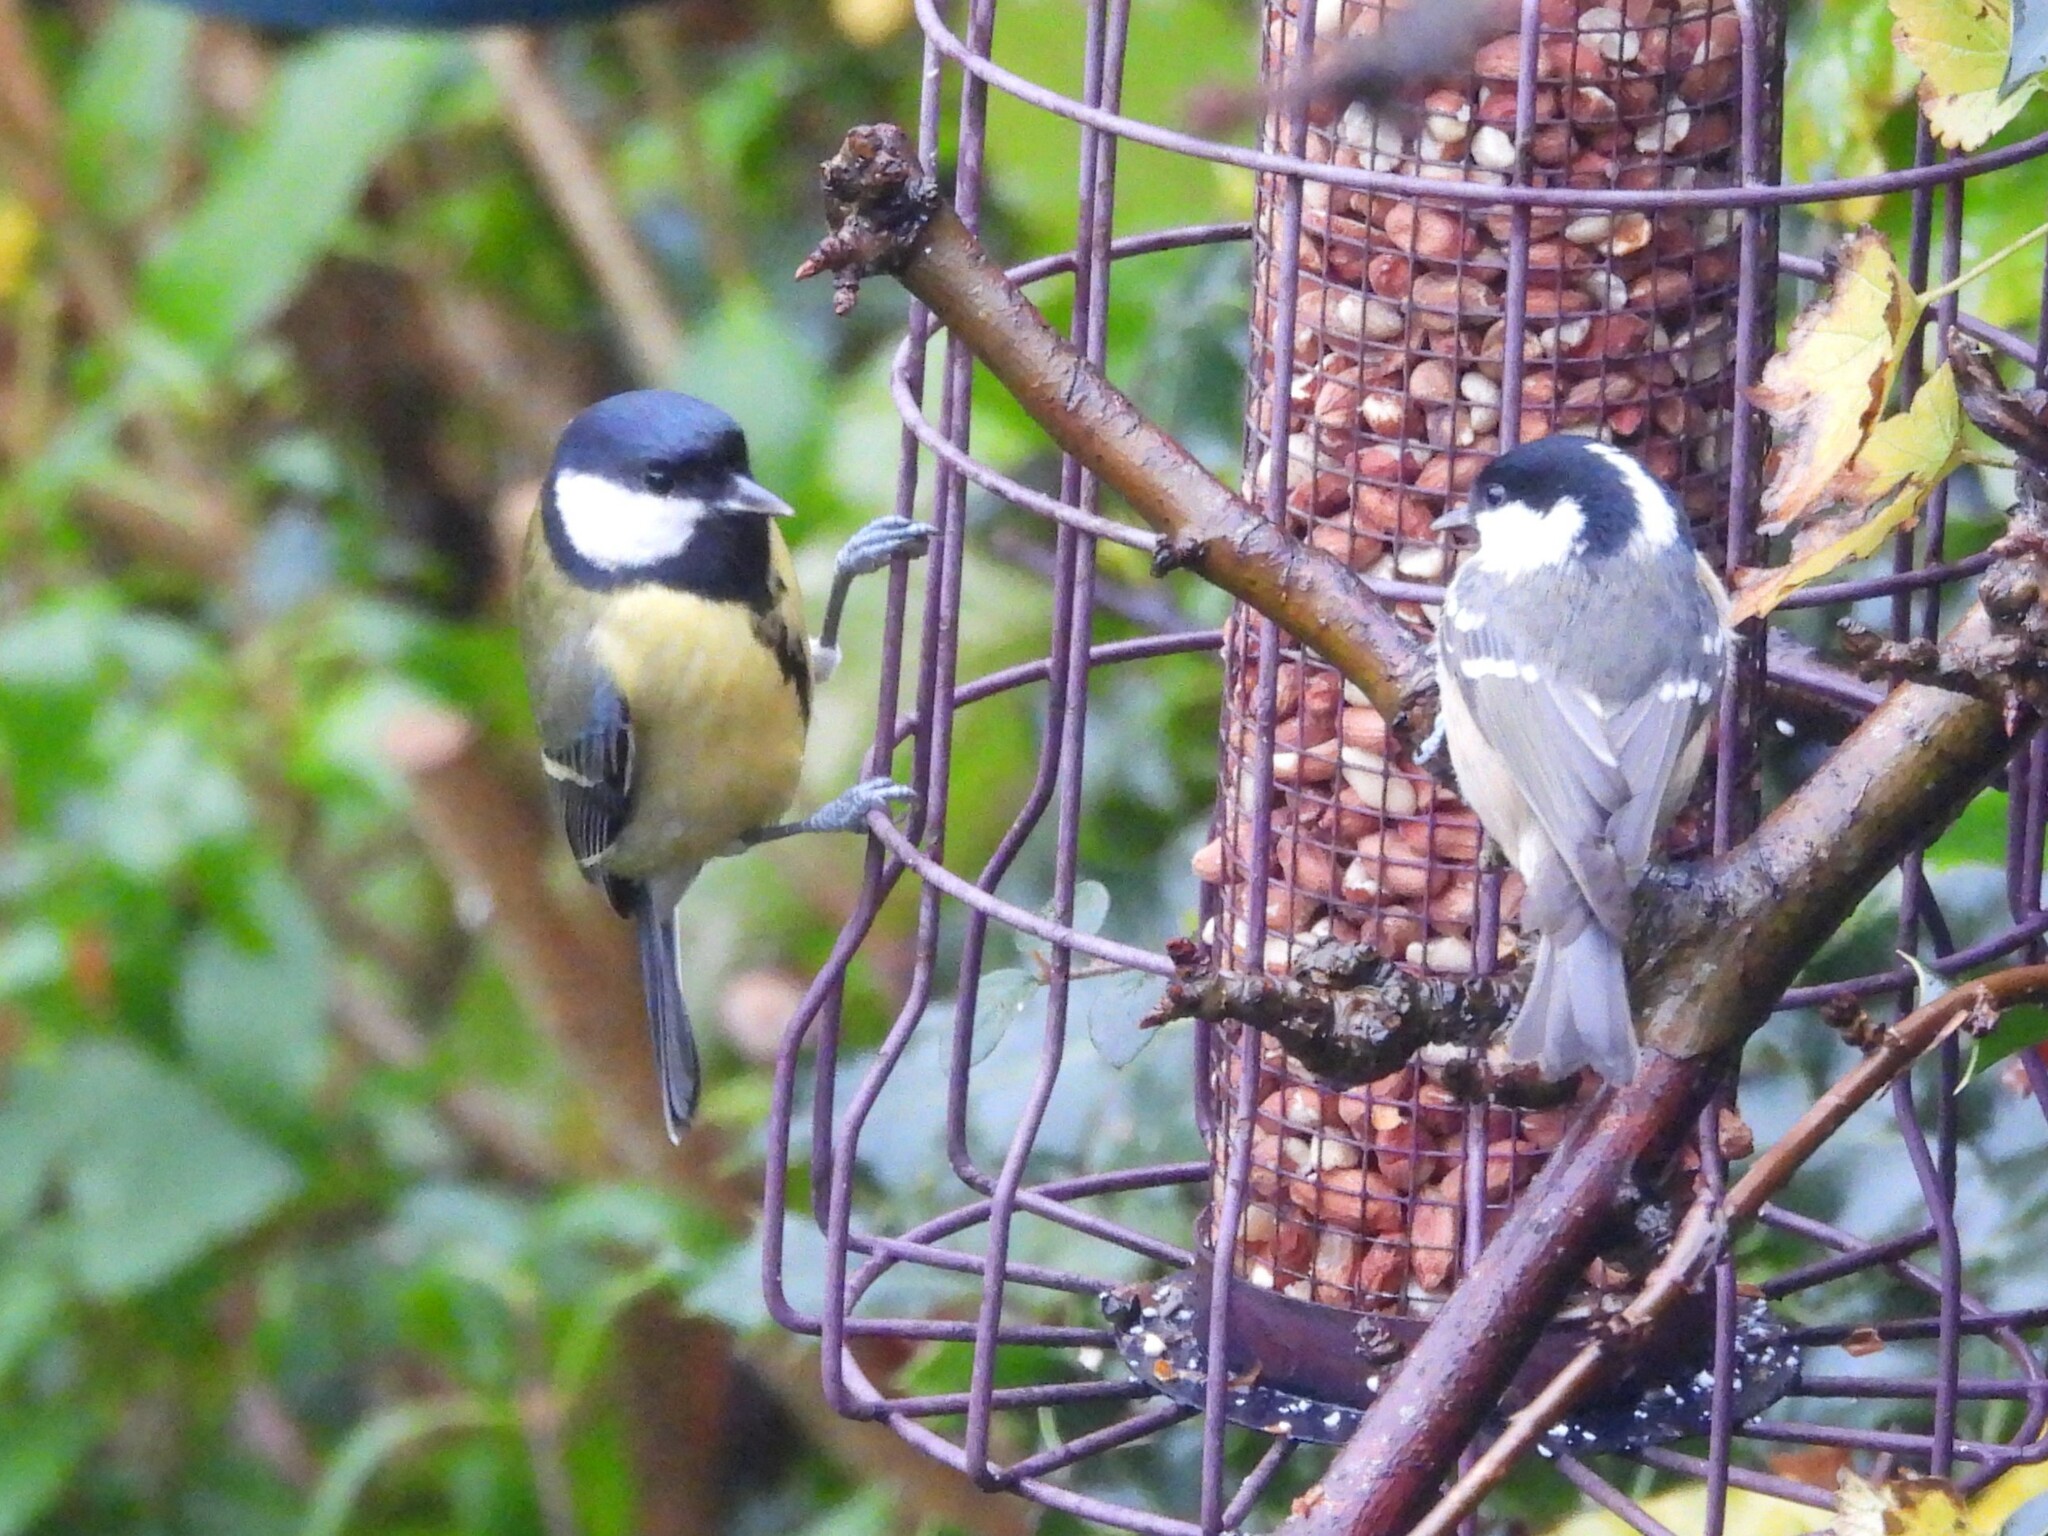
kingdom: Animalia
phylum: Chordata
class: Aves
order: Passeriformes
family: Paridae
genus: Periparus
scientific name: Periparus ater
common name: Coal tit
